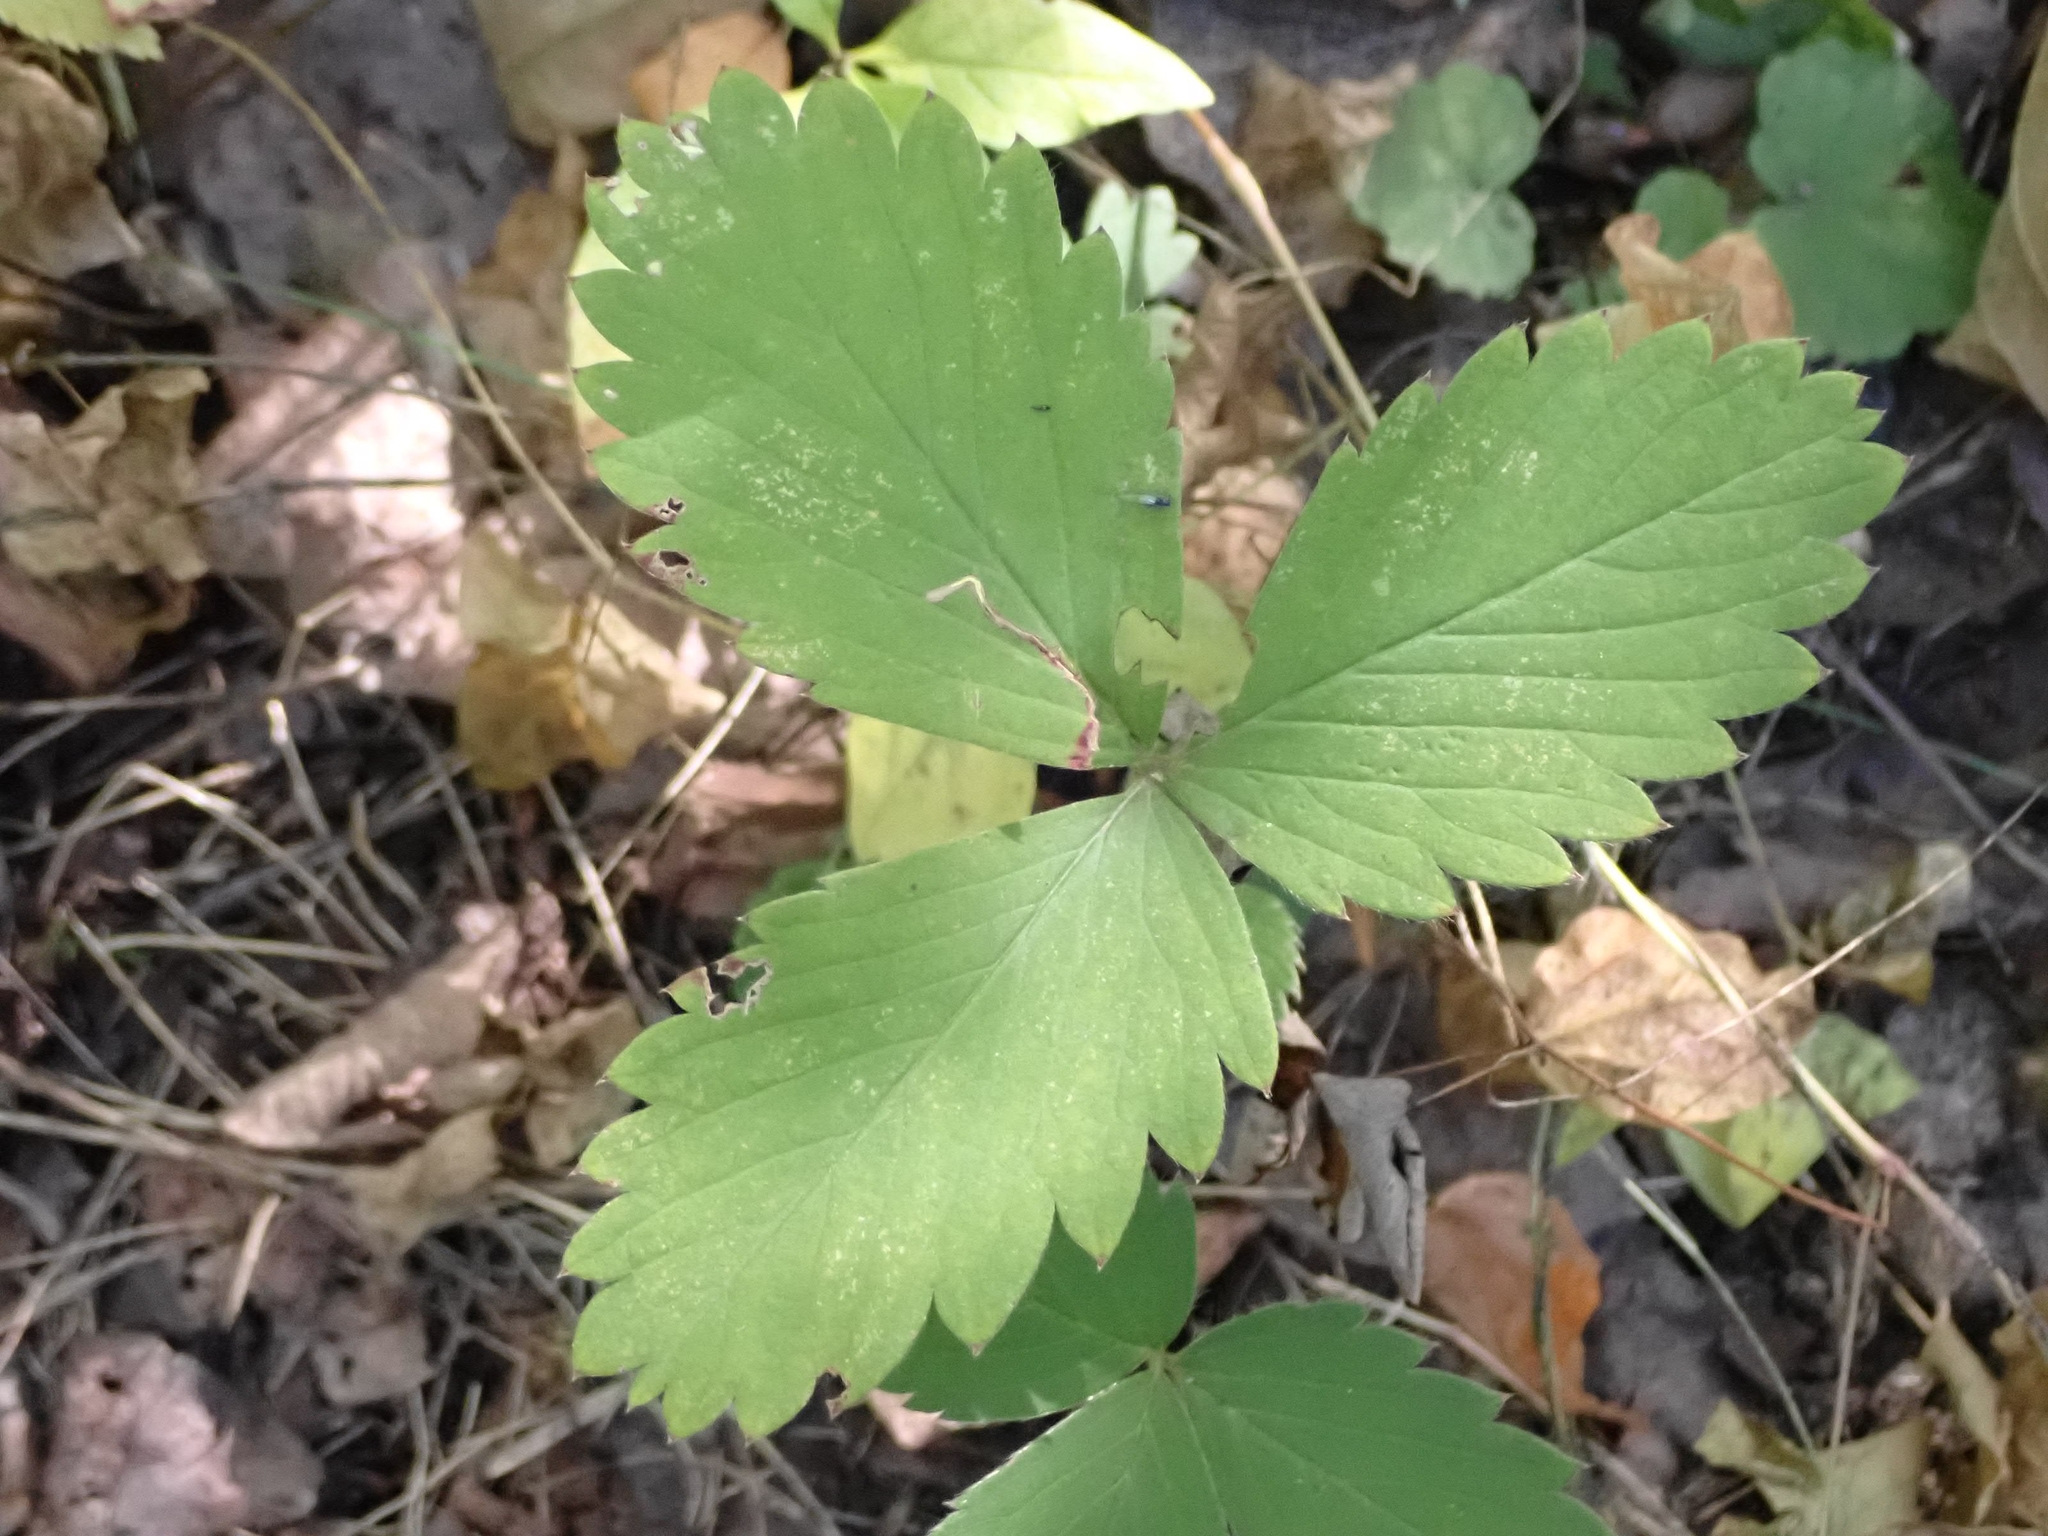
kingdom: Plantae
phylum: Tracheophyta
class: Magnoliopsida
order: Rosales
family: Rosaceae
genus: Fragaria
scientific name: Fragaria virginiana
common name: Thickleaved wild strawberry
